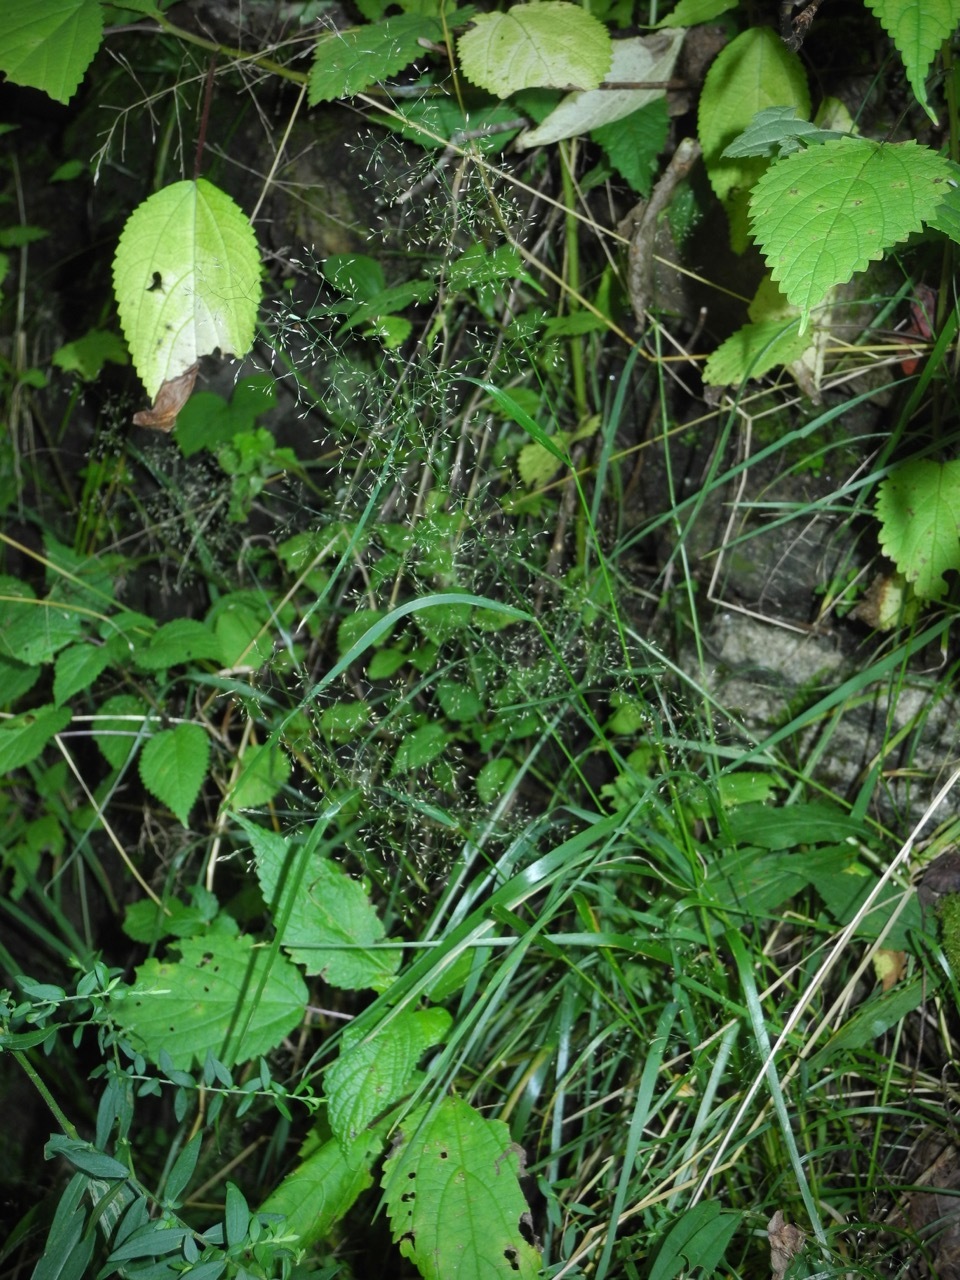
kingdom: Plantae
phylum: Tracheophyta
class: Liliopsida
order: Poales
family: Poaceae
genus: Agrostis
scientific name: Agrostis perennans
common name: Autumn bent
